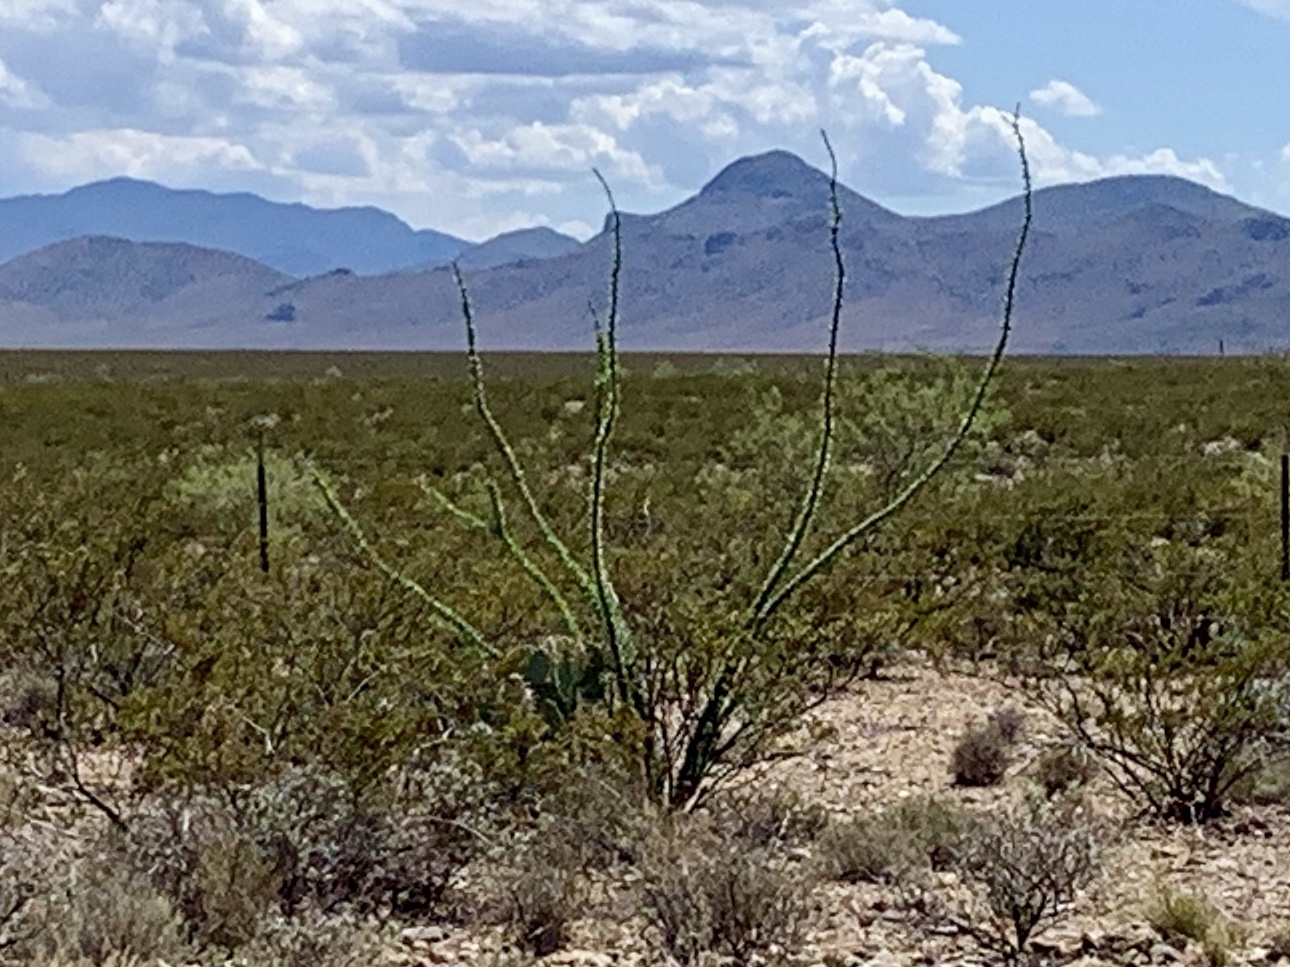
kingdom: Plantae
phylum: Tracheophyta
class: Magnoliopsida
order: Ericales
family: Fouquieriaceae
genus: Fouquieria
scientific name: Fouquieria splendens
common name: Vine-cactus
